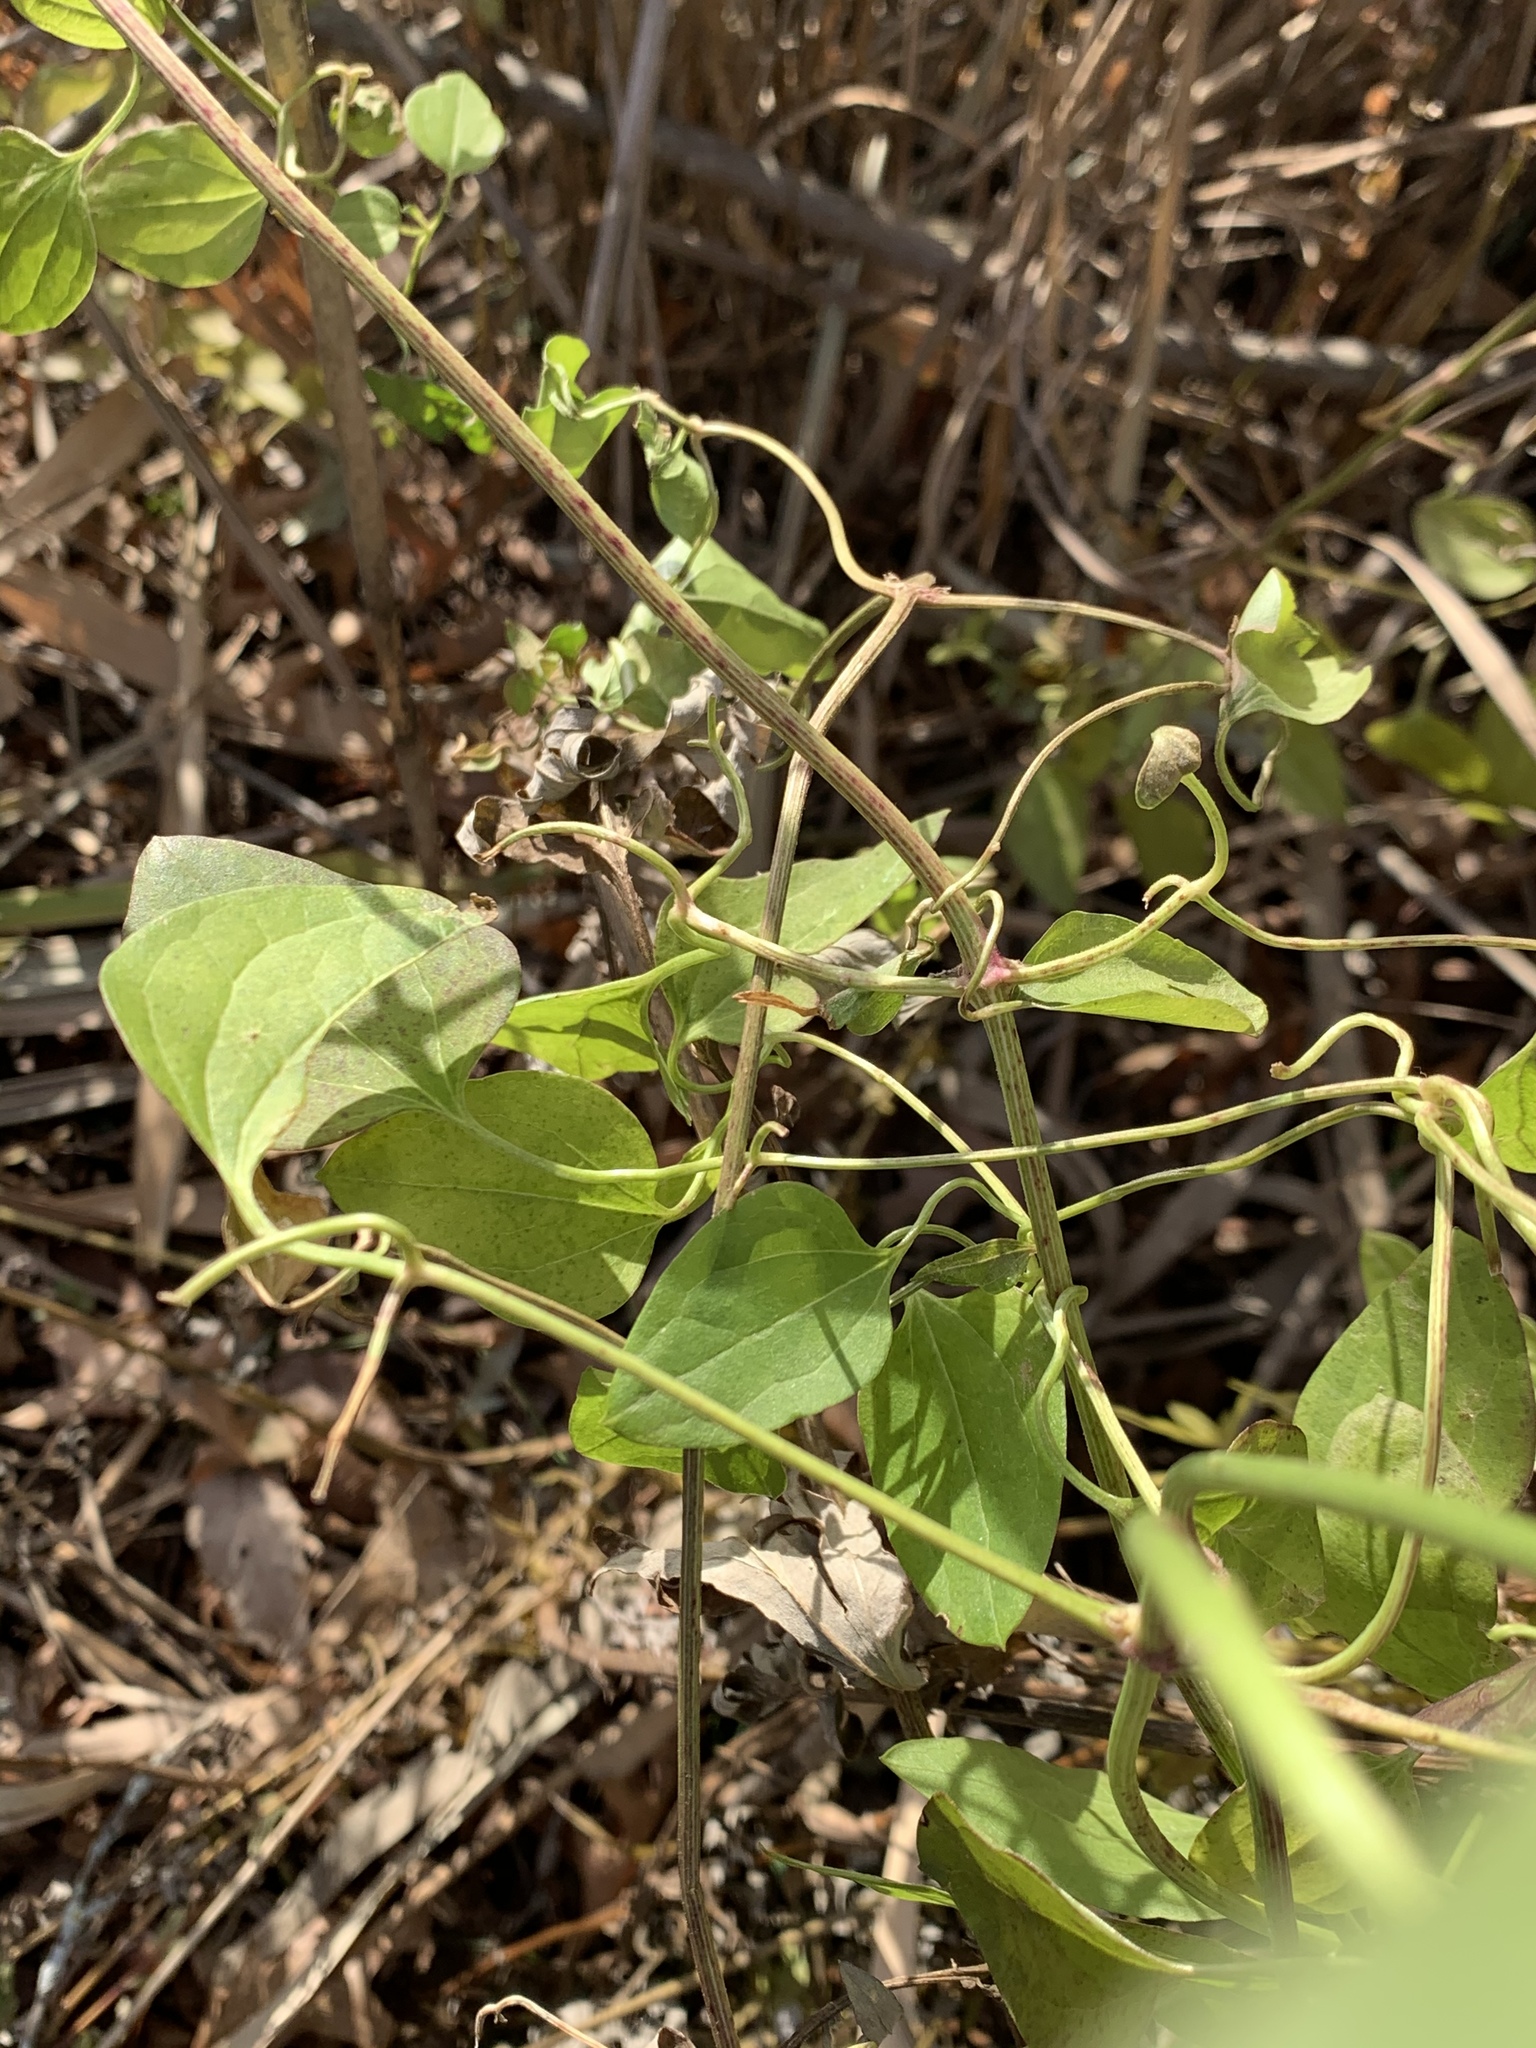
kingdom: Plantae
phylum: Tracheophyta
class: Magnoliopsida
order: Ranunculales
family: Ranunculaceae
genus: Clematis
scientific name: Clematis terniflora
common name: Sweet autumn clematis
